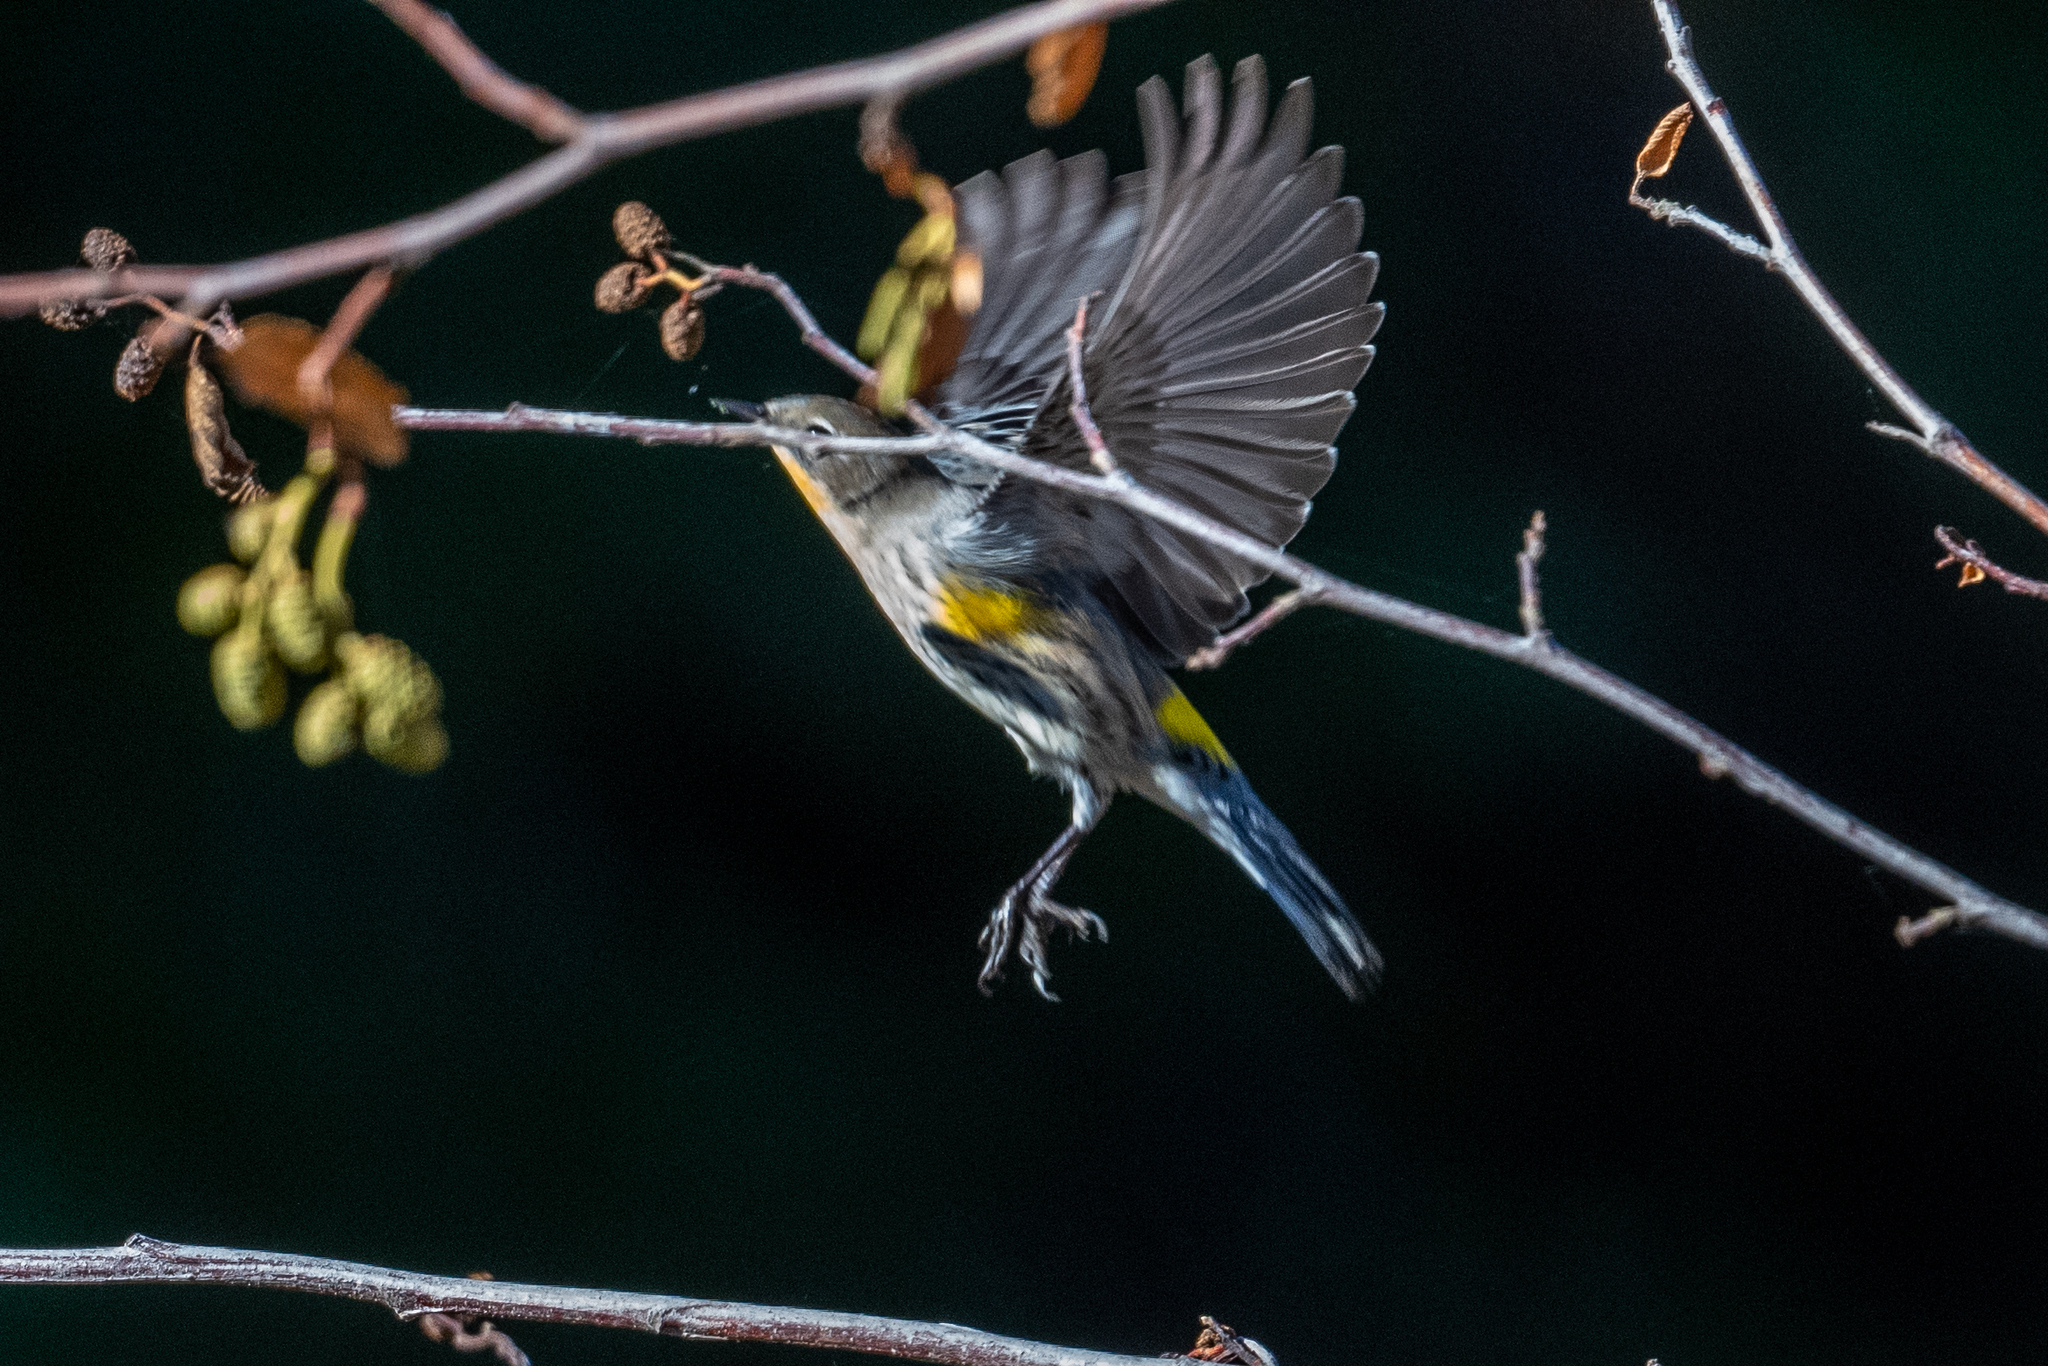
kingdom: Animalia
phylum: Chordata
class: Aves
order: Passeriformes
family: Parulidae
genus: Setophaga
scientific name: Setophaga coronata
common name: Myrtle warbler
